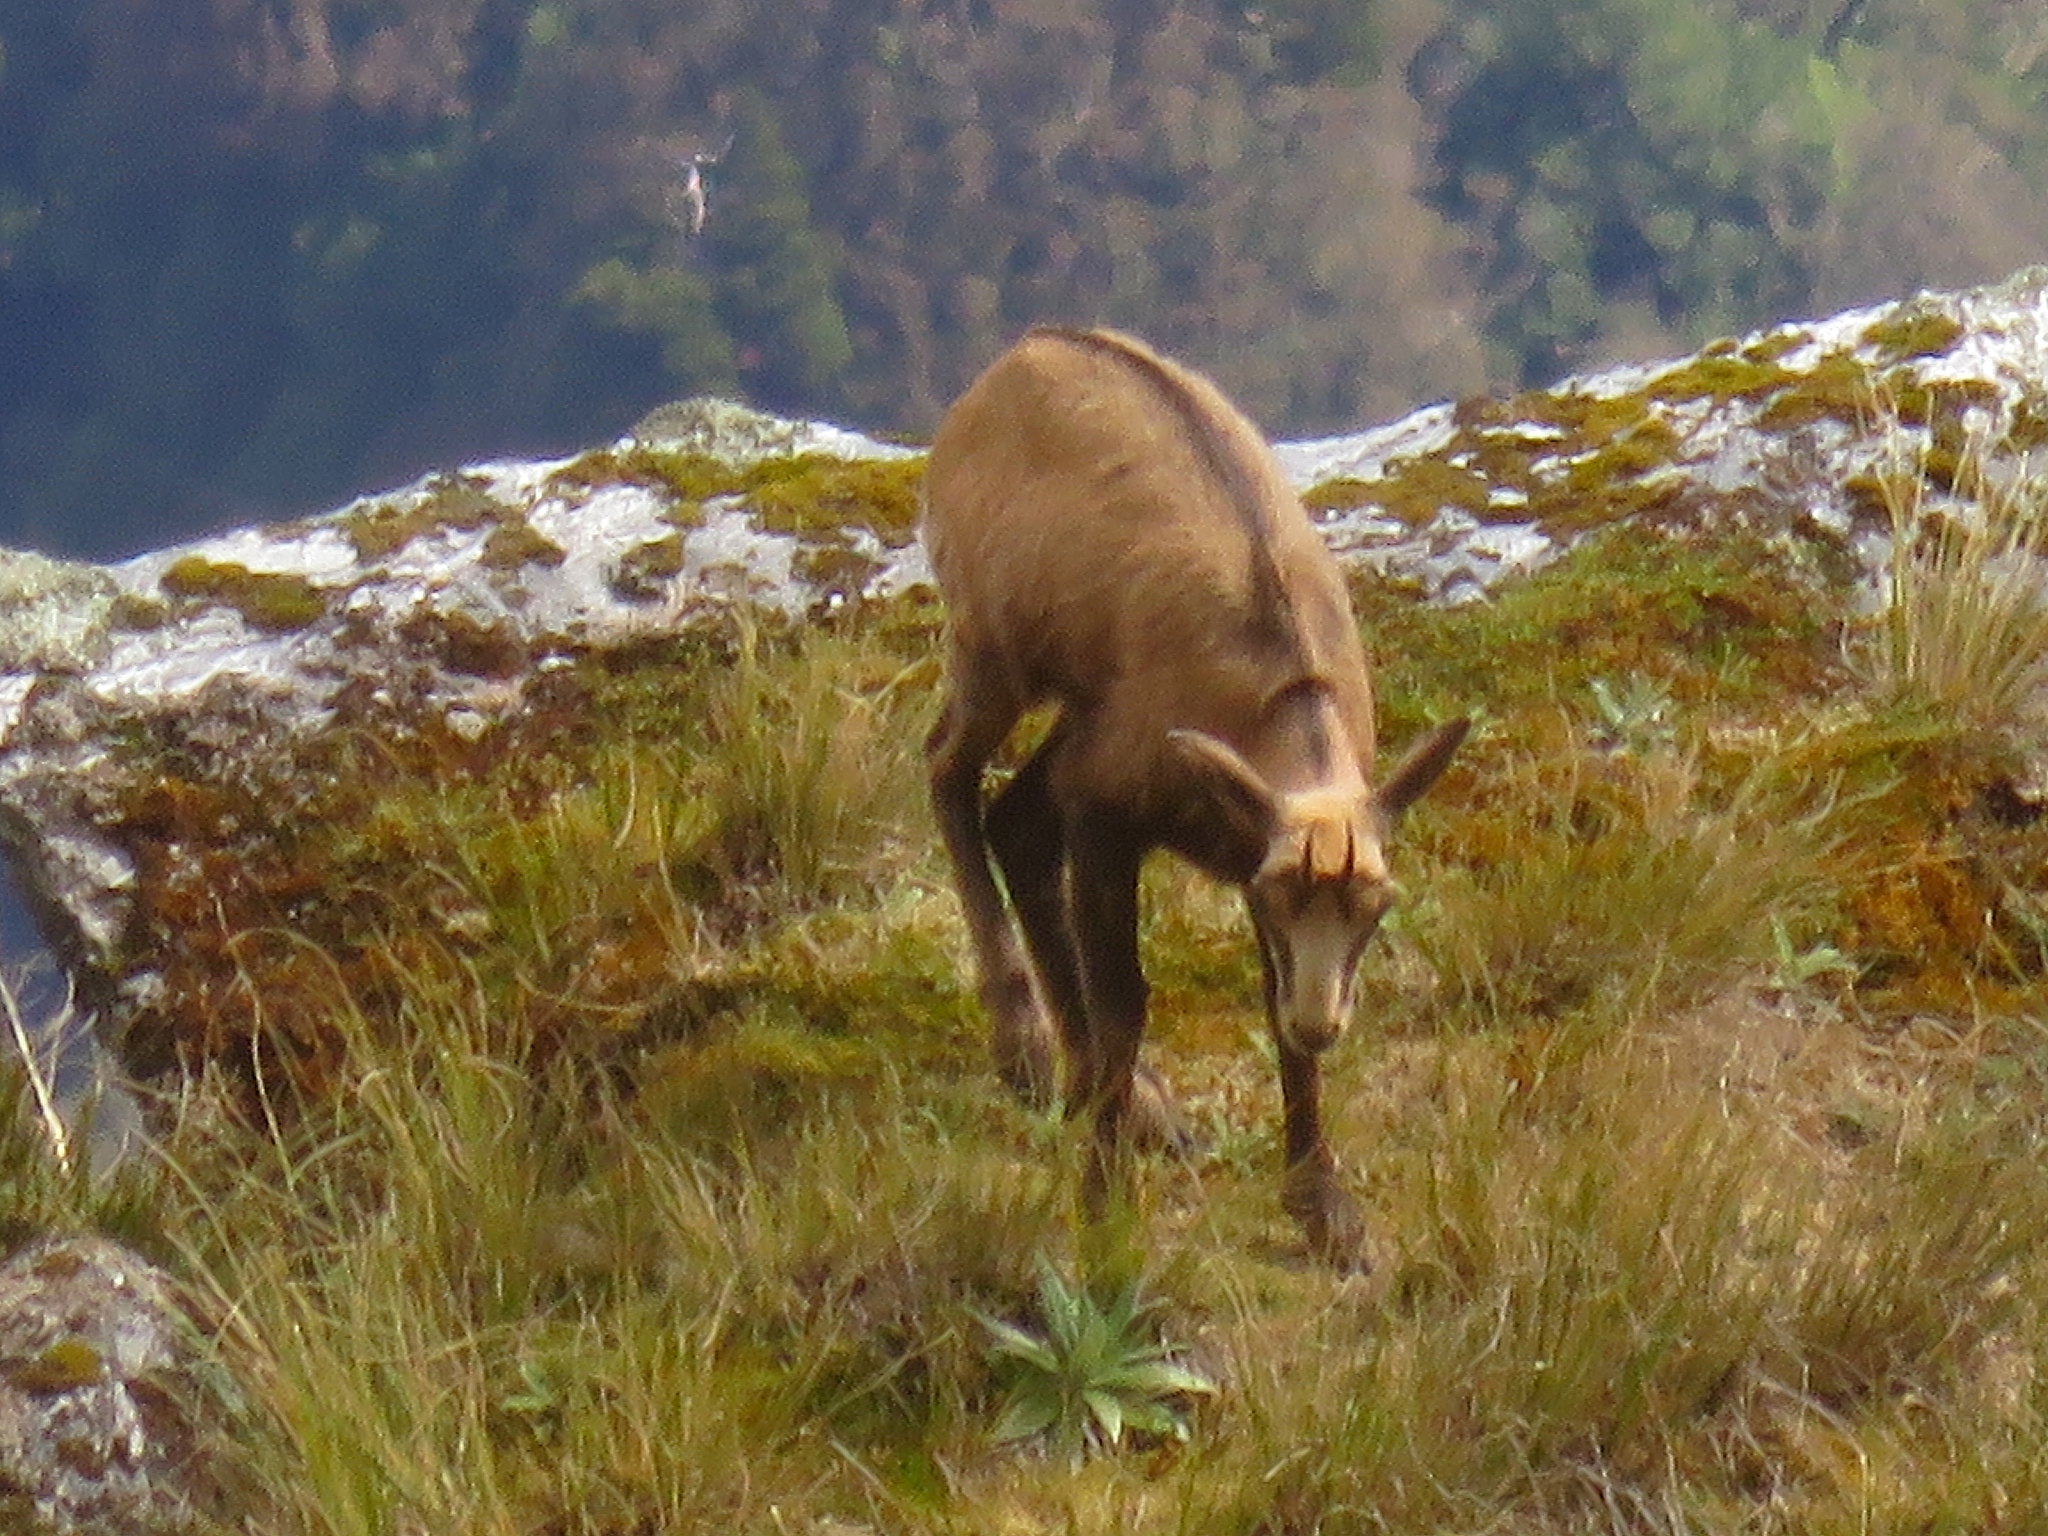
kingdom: Animalia
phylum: Chordata
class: Mammalia
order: Artiodactyla
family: Bovidae
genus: Rupicapra
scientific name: Rupicapra rupicapra
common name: Chamois
